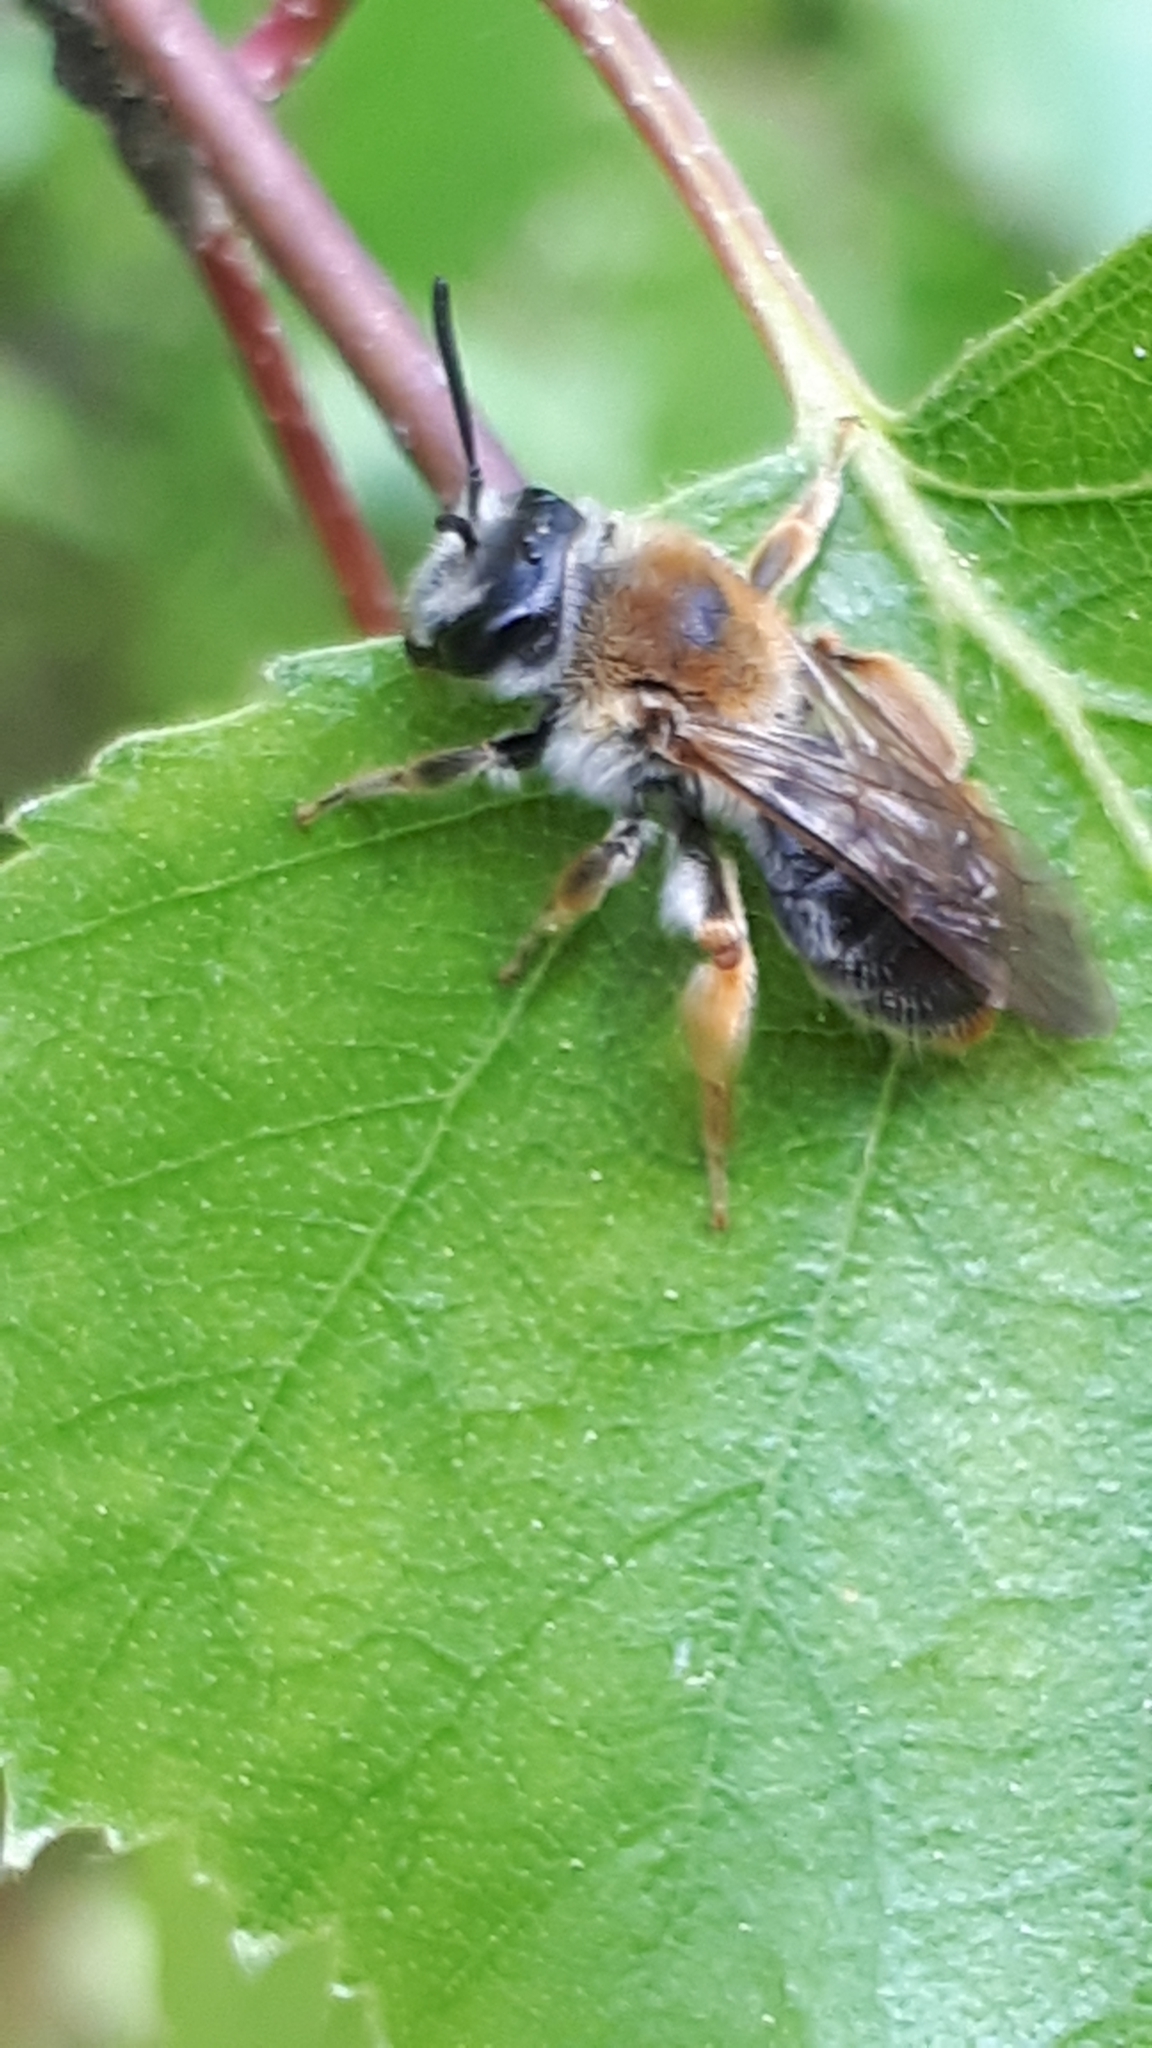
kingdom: Animalia
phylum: Arthropoda
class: Insecta
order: Hymenoptera
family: Andrenidae
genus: Andrena
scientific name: Andrena haemorrhoa
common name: Early mining bee
